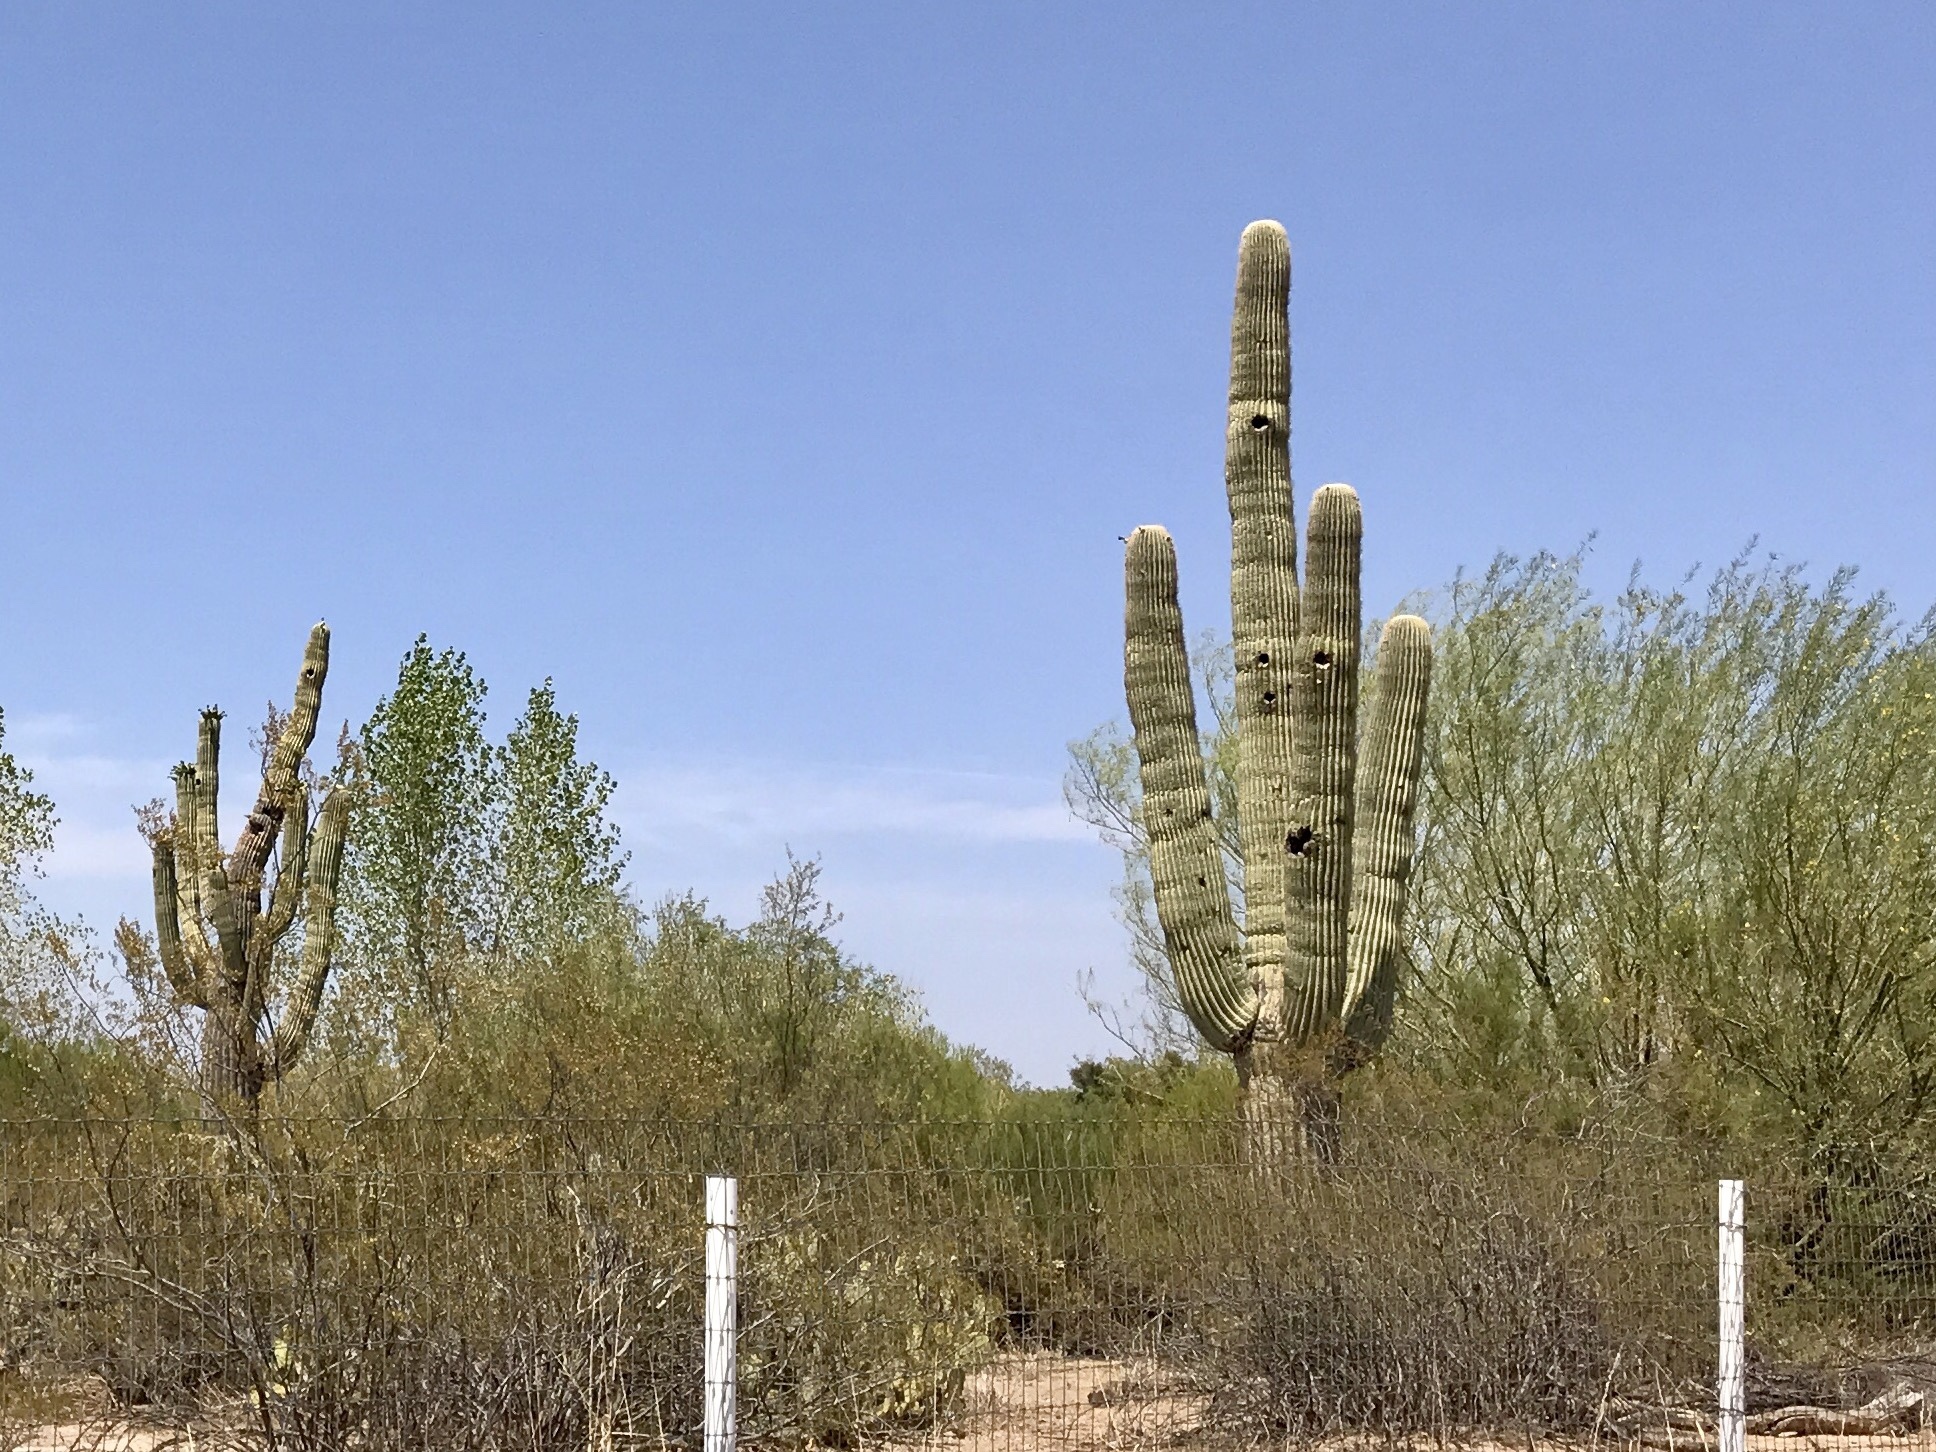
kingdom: Plantae
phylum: Tracheophyta
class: Magnoliopsida
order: Caryophyllales
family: Cactaceae
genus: Carnegiea
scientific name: Carnegiea gigantea
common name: Saguaro
